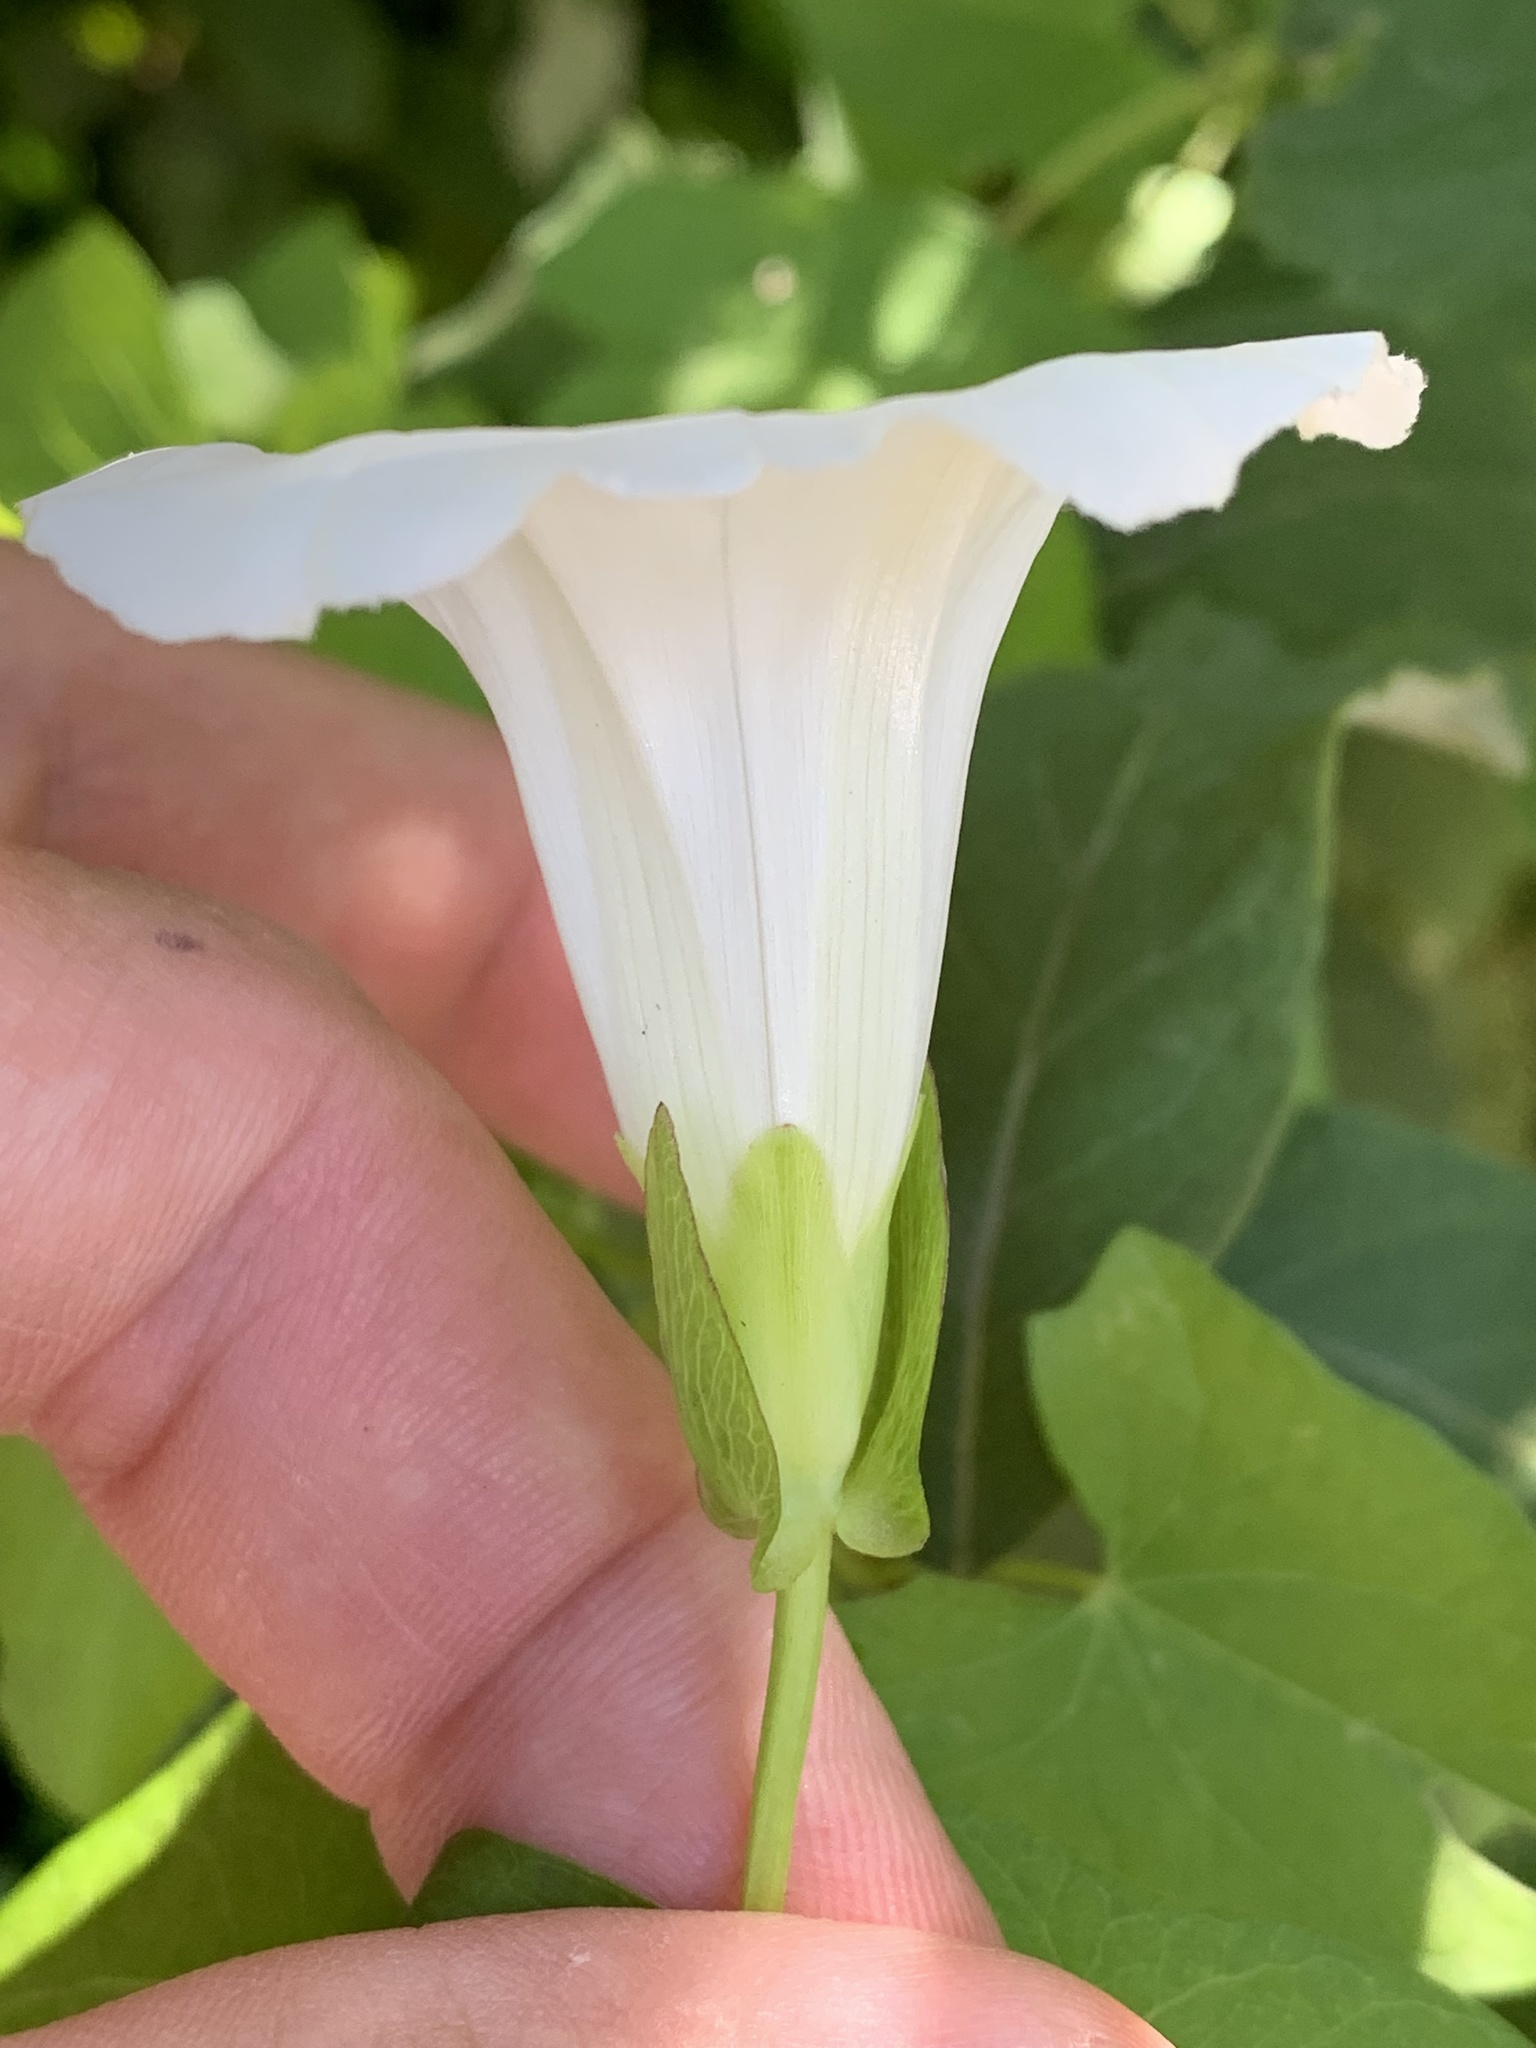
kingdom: Plantae
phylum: Tracheophyta
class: Magnoliopsida
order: Solanales
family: Convolvulaceae
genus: Calystegia
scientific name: Calystegia sepium
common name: Hedge bindweed
